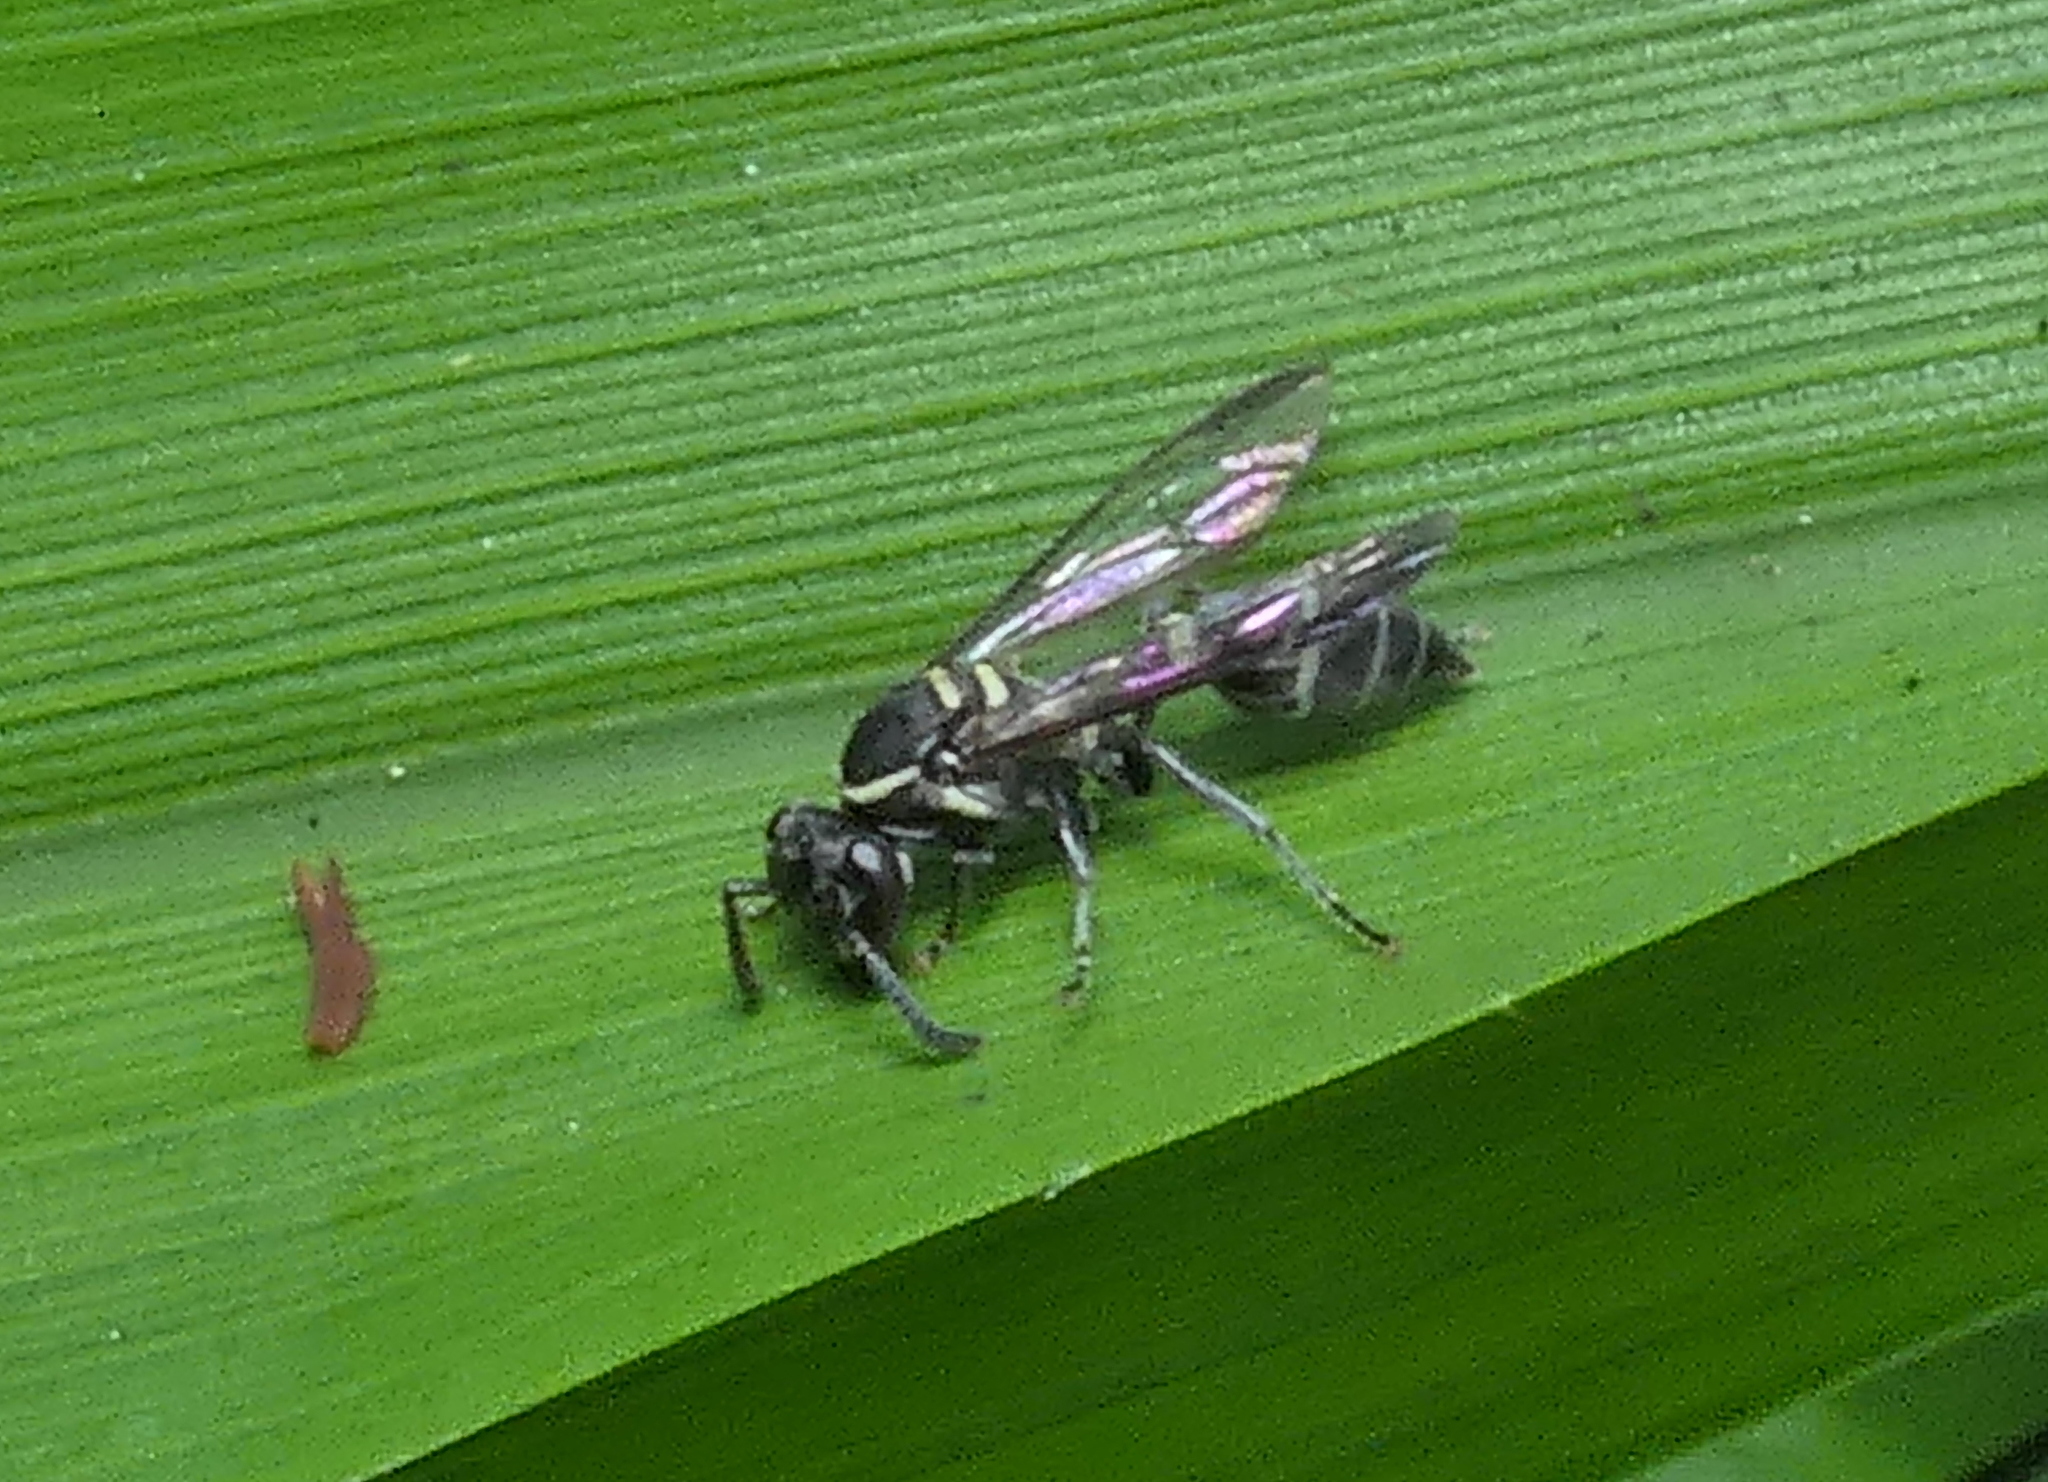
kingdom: Animalia
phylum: Arthropoda
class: Insecta
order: Hymenoptera
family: Eumenidae
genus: Polybia
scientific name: Polybia occidentalis
